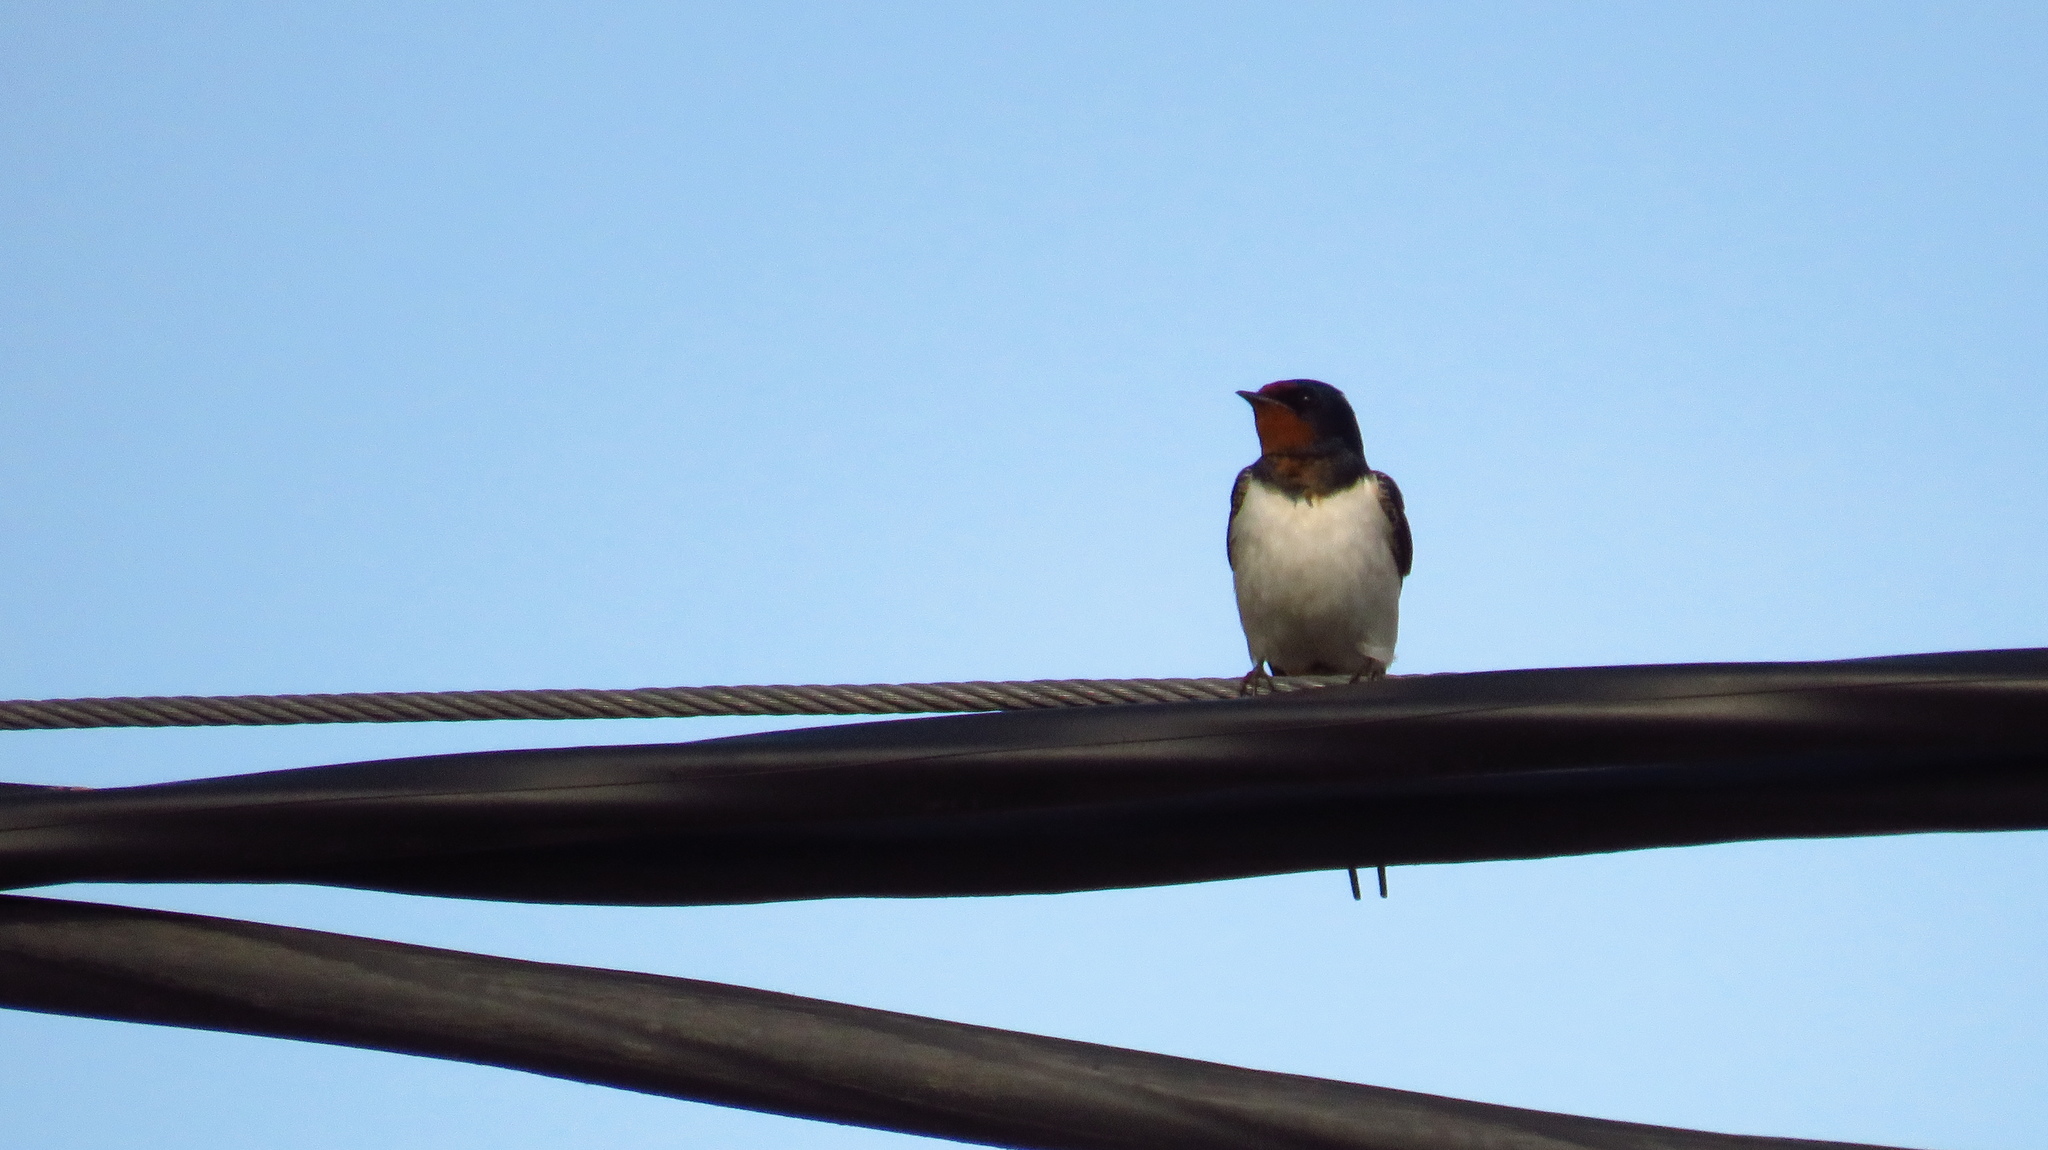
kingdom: Animalia
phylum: Chordata
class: Aves
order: Passeriformes
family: Hirundinidae
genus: Hirundo
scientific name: Hirundo rustica
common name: Barn swallow
